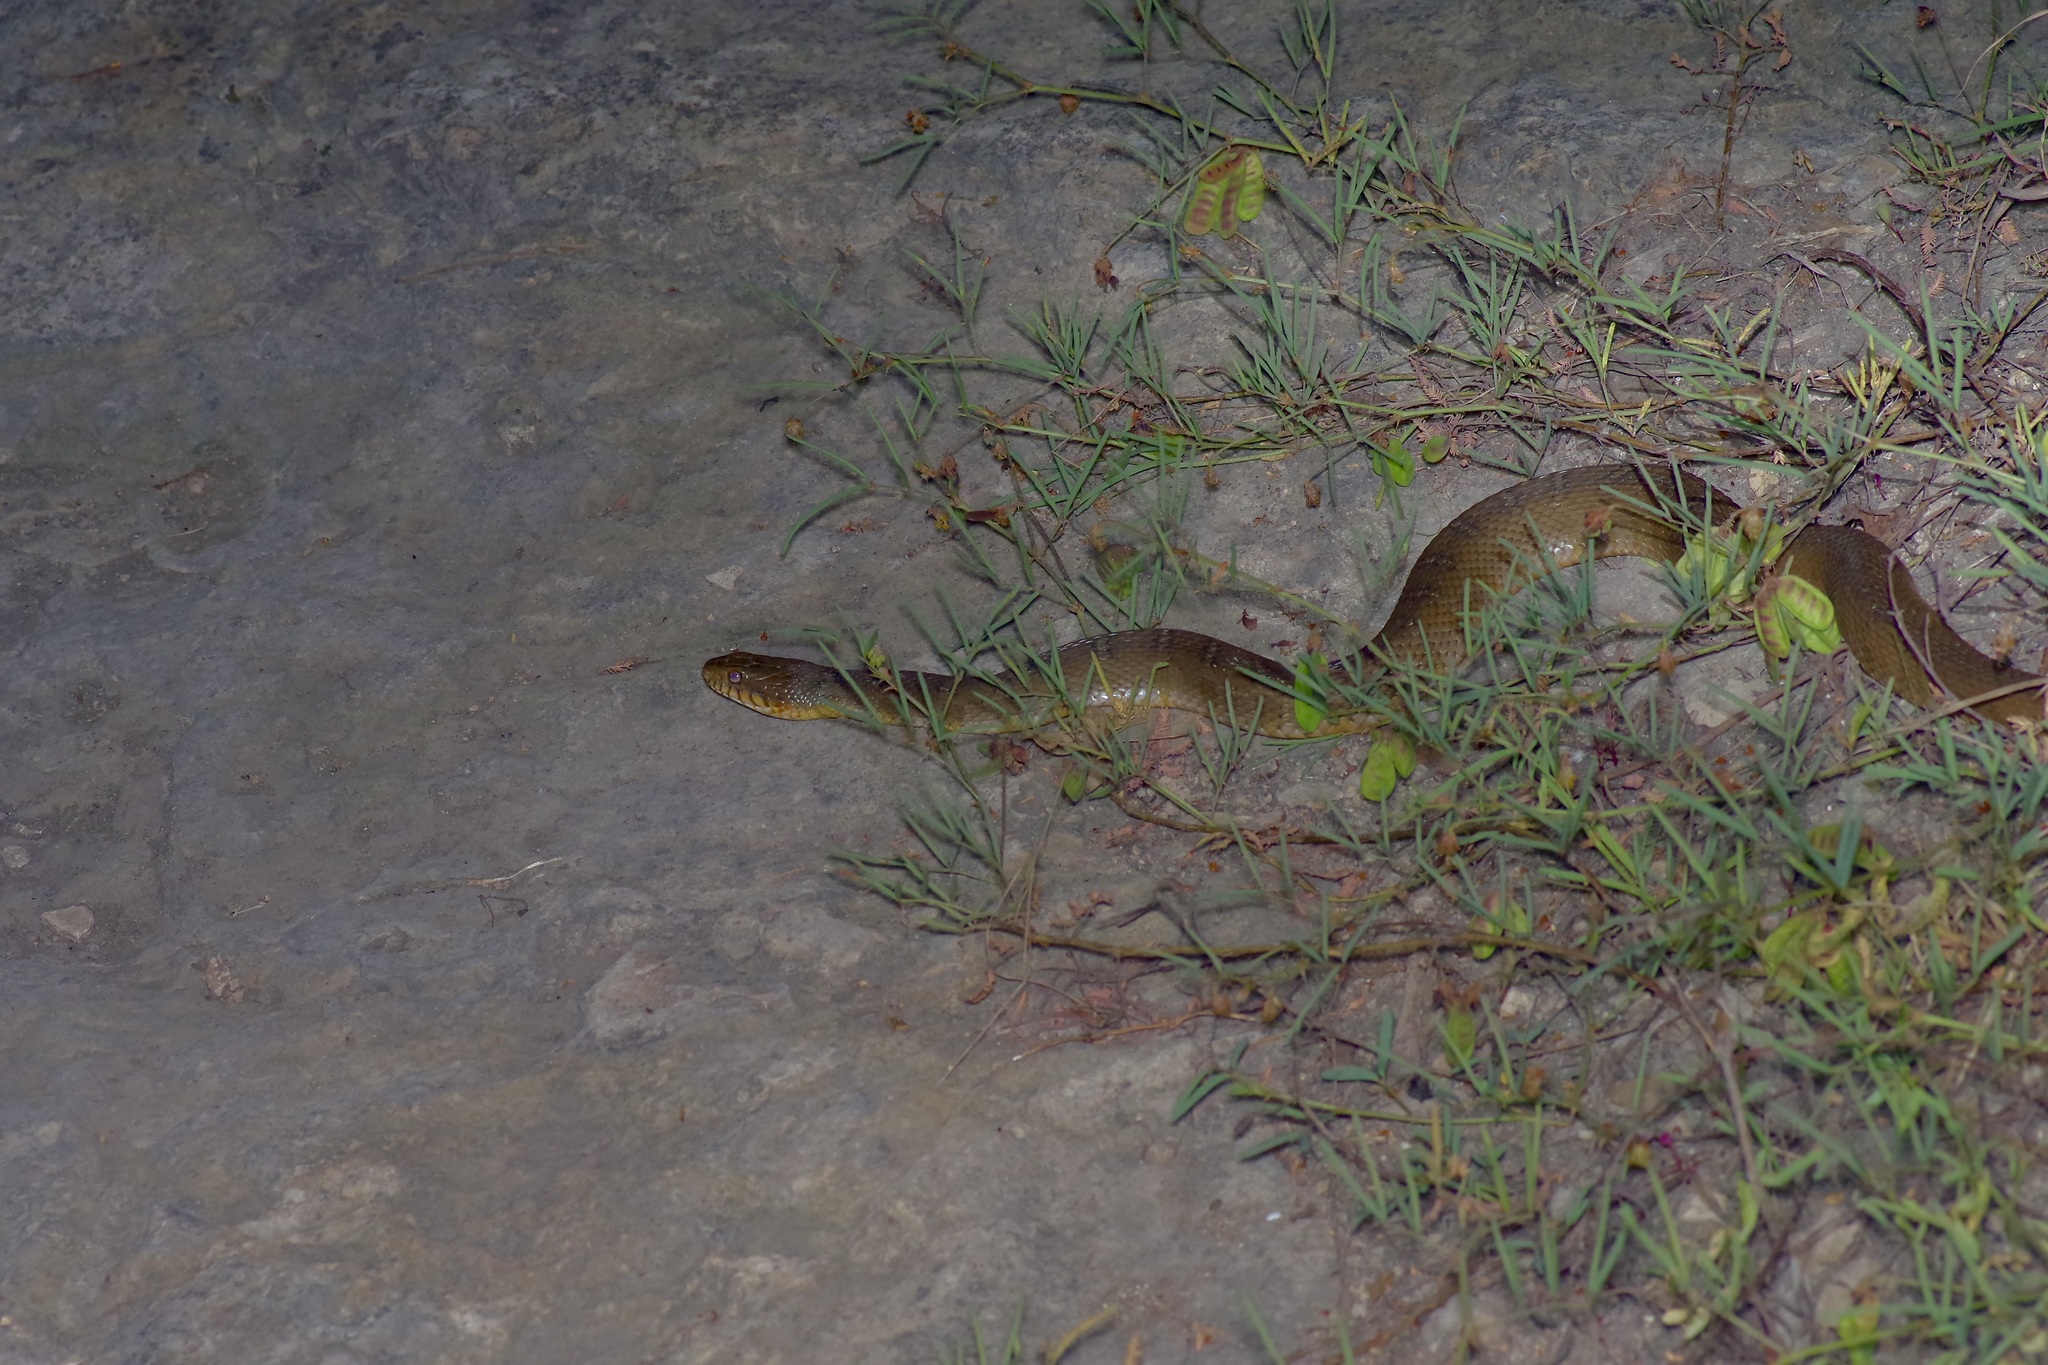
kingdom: Animalia
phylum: Chordata
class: Squamata
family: Colubridae
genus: Nerodia
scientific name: Nerodia erythrogaster
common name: Plainbelly water snake
